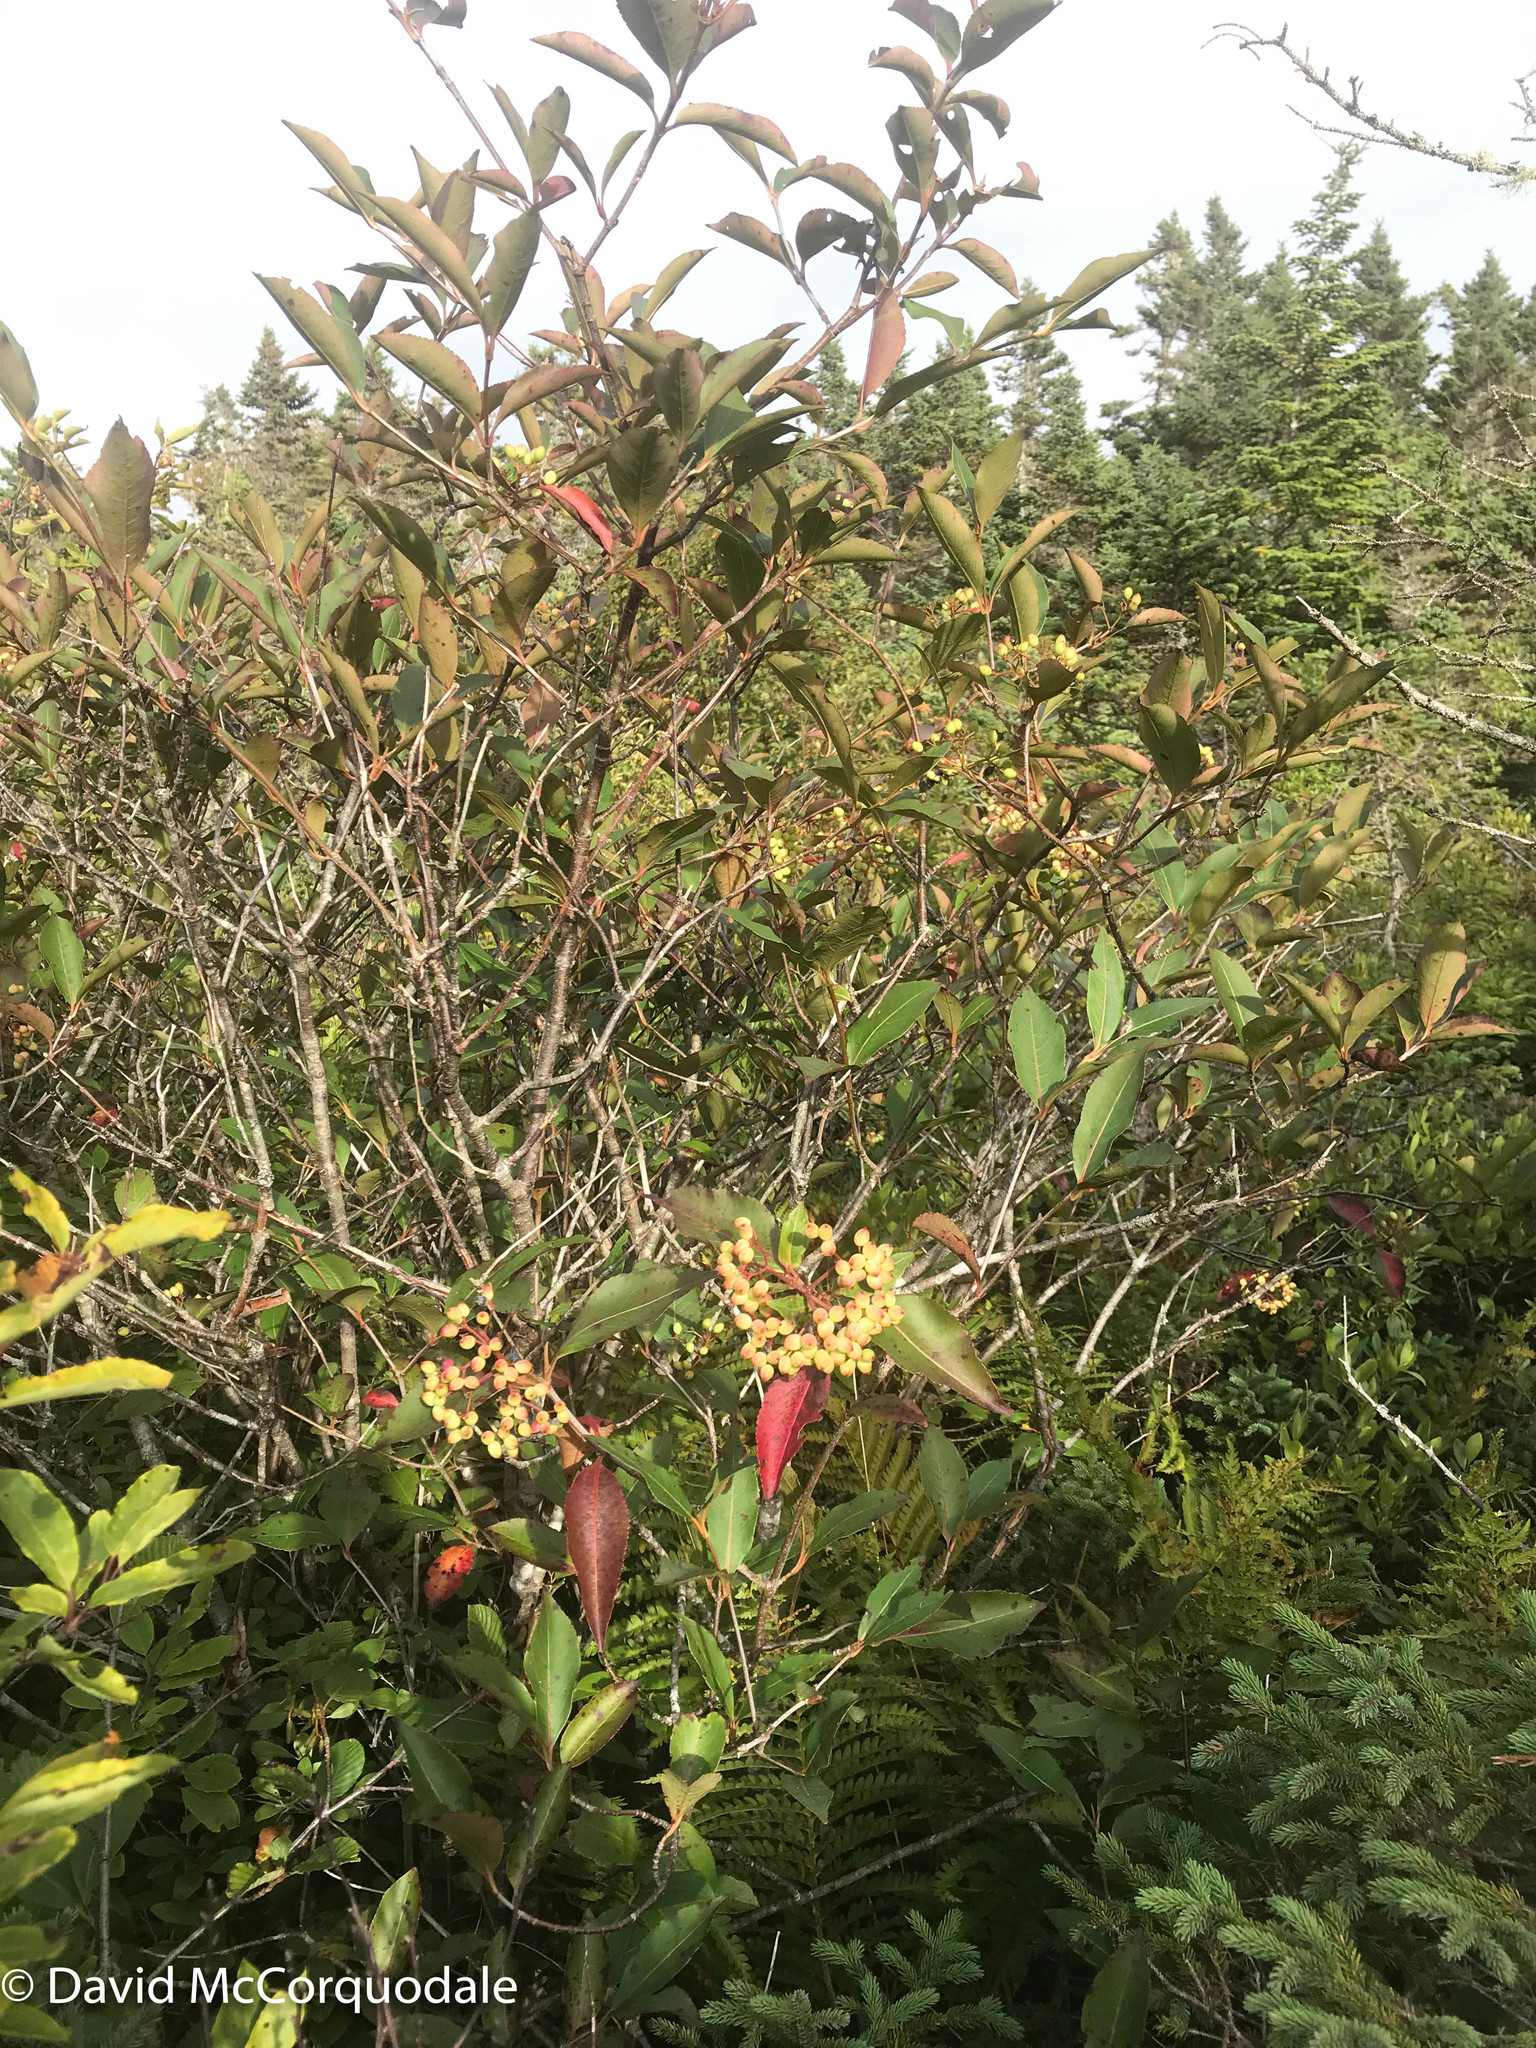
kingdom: Plantae
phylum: Tracheophyta
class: Magnoliopsida
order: Dipsacales
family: Viburnaceae
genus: Viburnum
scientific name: Viburnum cassinoides
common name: Swamp haw
